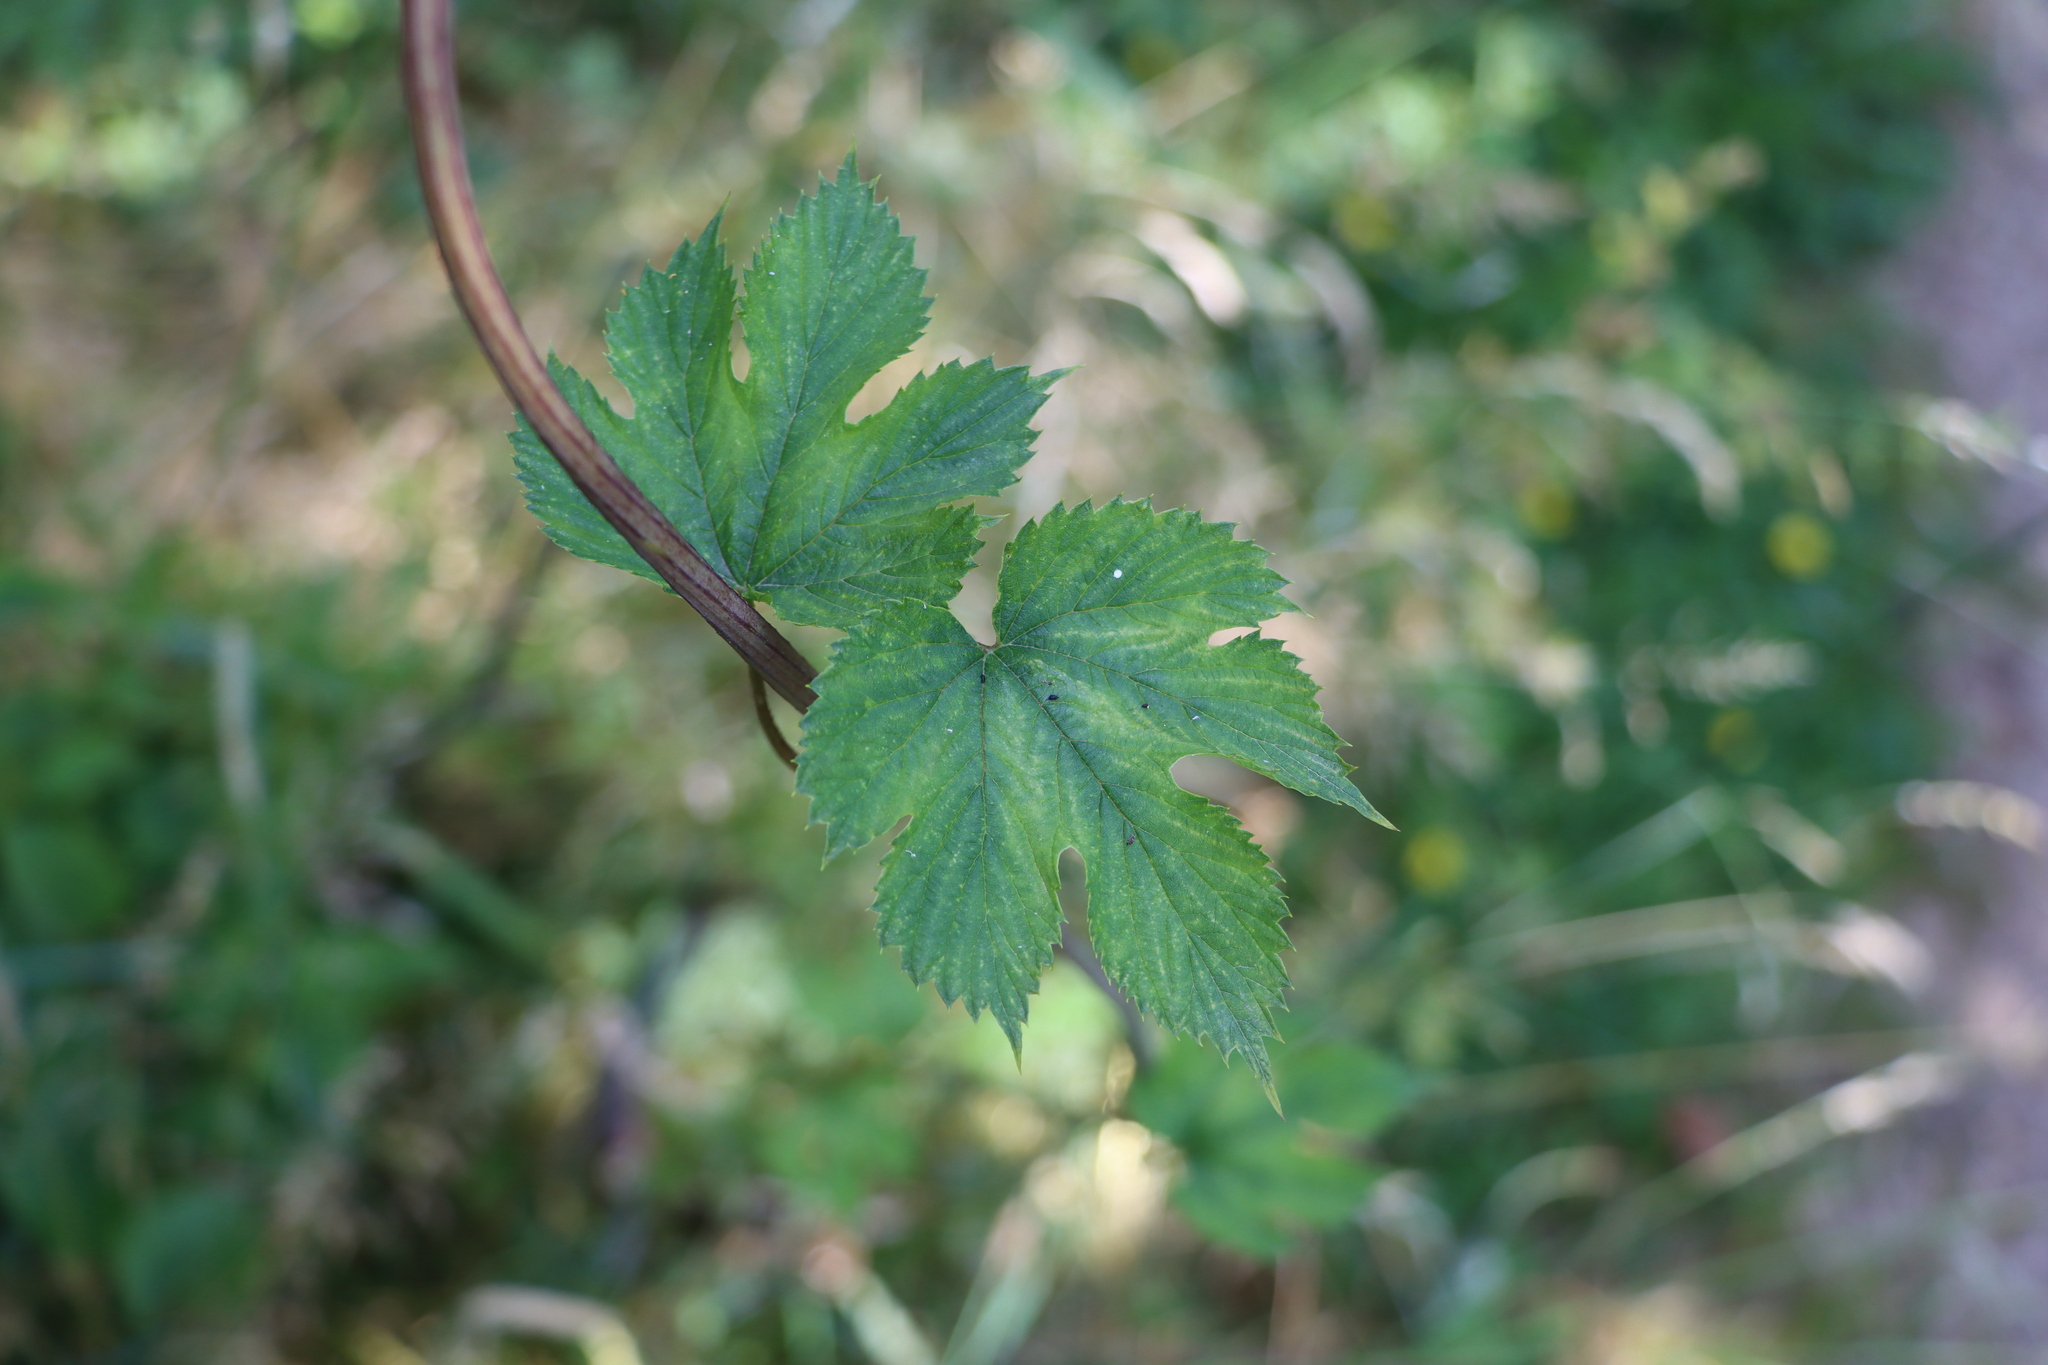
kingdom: Plantae
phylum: Tracheophyta
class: Magnoliopsida
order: Rosales
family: Cannabaceae
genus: Humulus
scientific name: Humulus lupulus
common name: Hop
